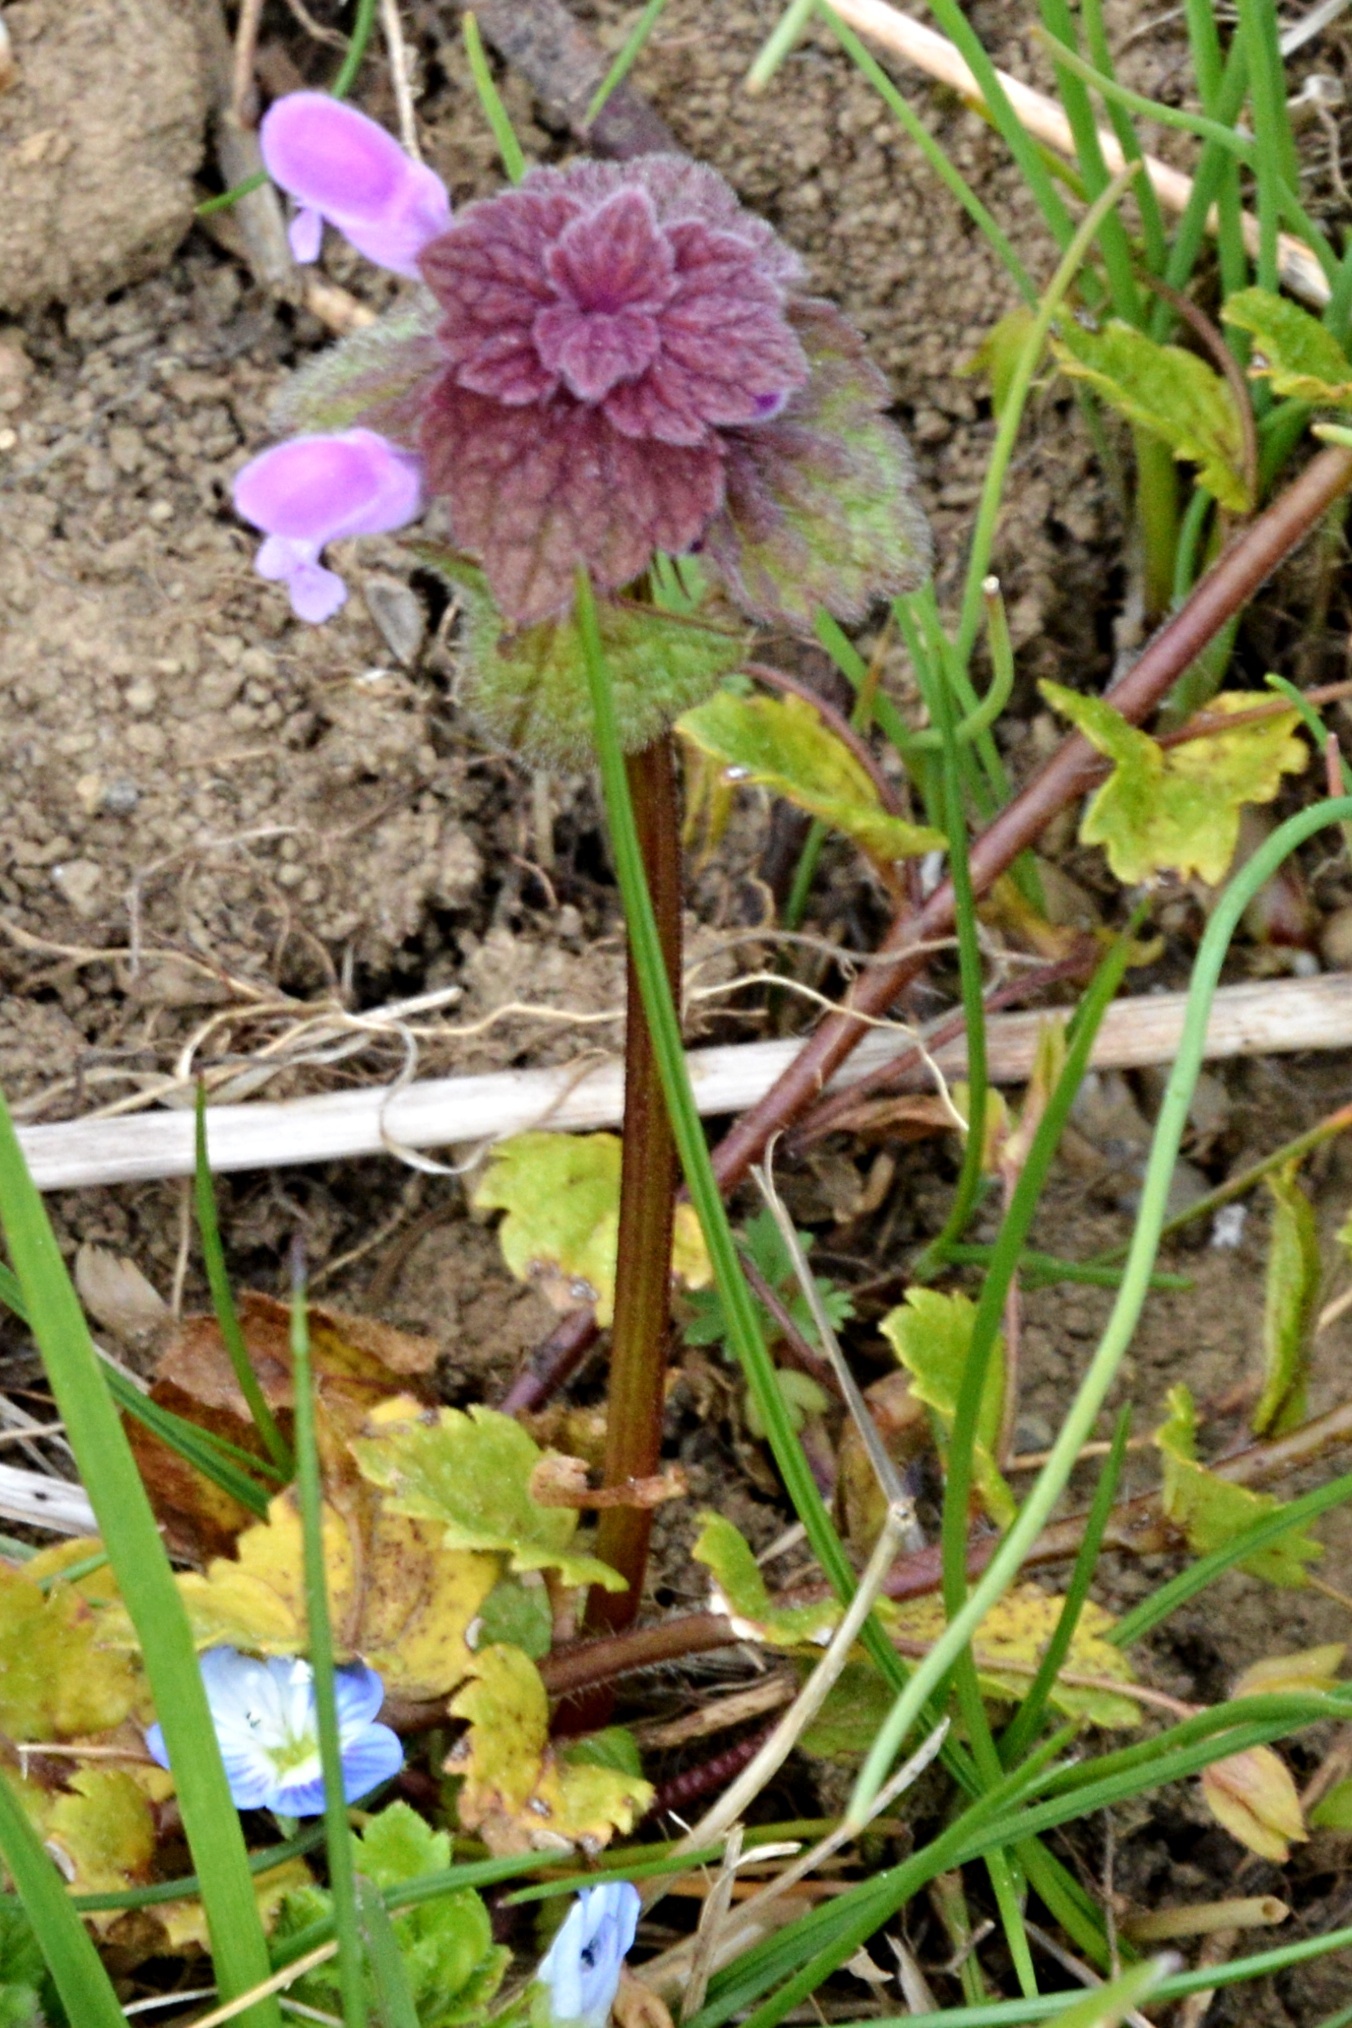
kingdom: Plantae
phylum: Tracheophyta
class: Magnoliopsida
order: Lamiales
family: Lamiaceae
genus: Lamium
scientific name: Lamium purpureum
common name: Red dead-nettle
